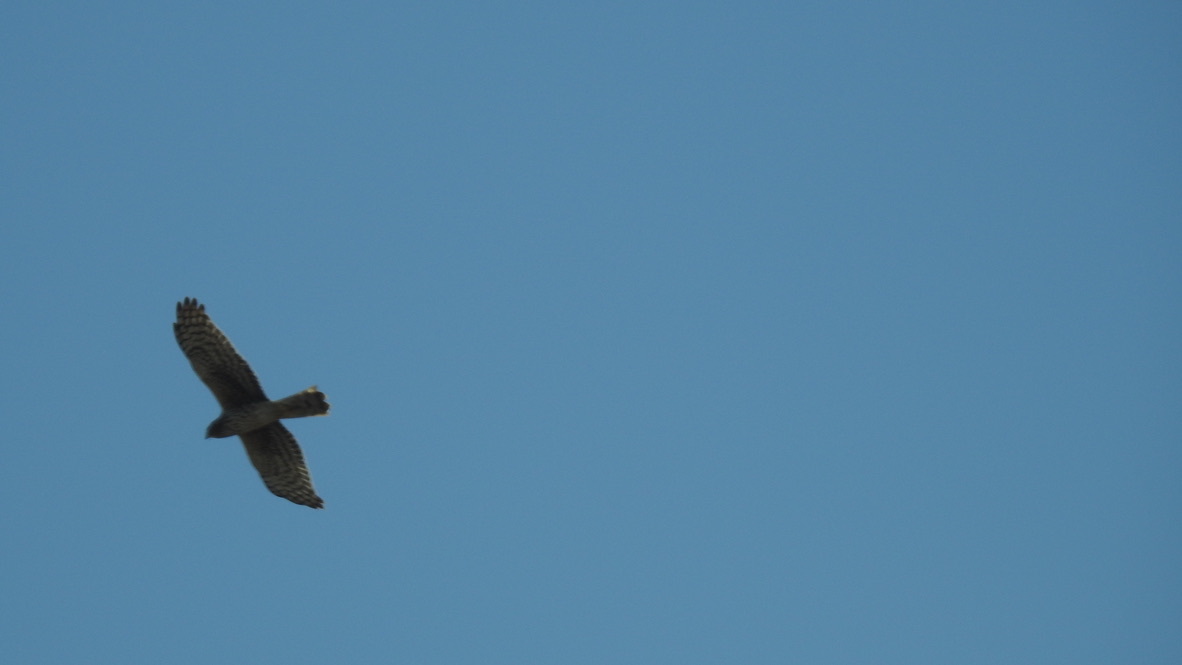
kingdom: Animalia
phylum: Chordata
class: Aves
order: Accipitriformes
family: Accipitridae
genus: Circus
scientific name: Circus cyaneus
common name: Hen harrier
